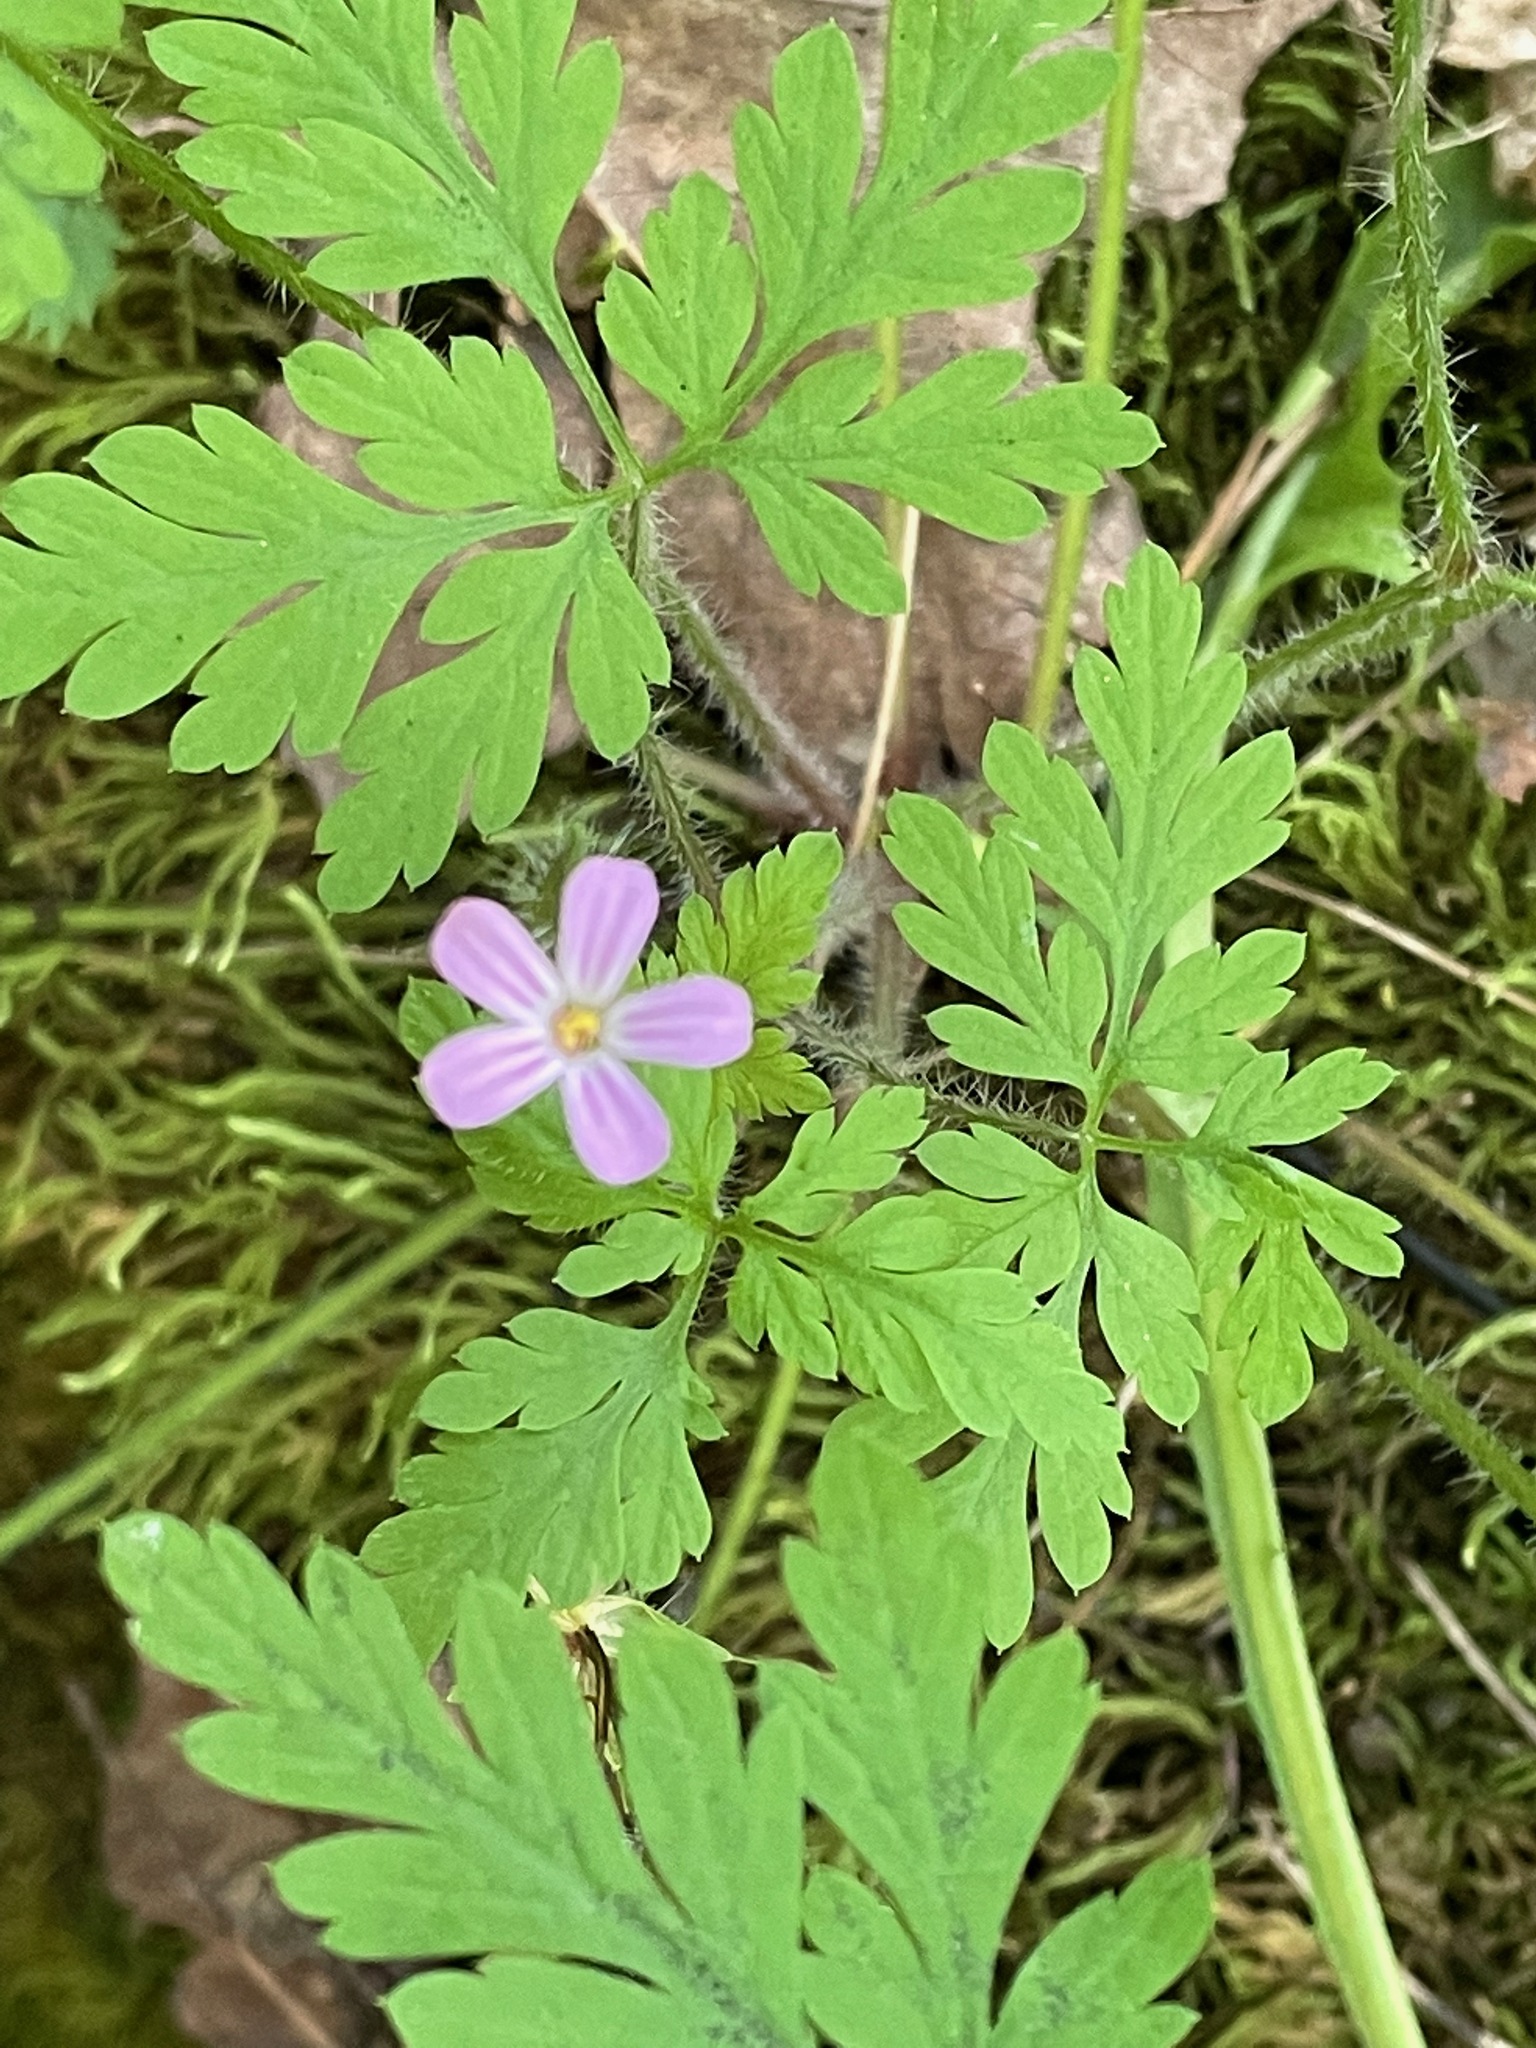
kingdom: Plantae
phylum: Tracheophyta
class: Magnoliopsida
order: Geraniales
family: Geraniaceae
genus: Geranium
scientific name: Geranium robertianum
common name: Herb-robert
